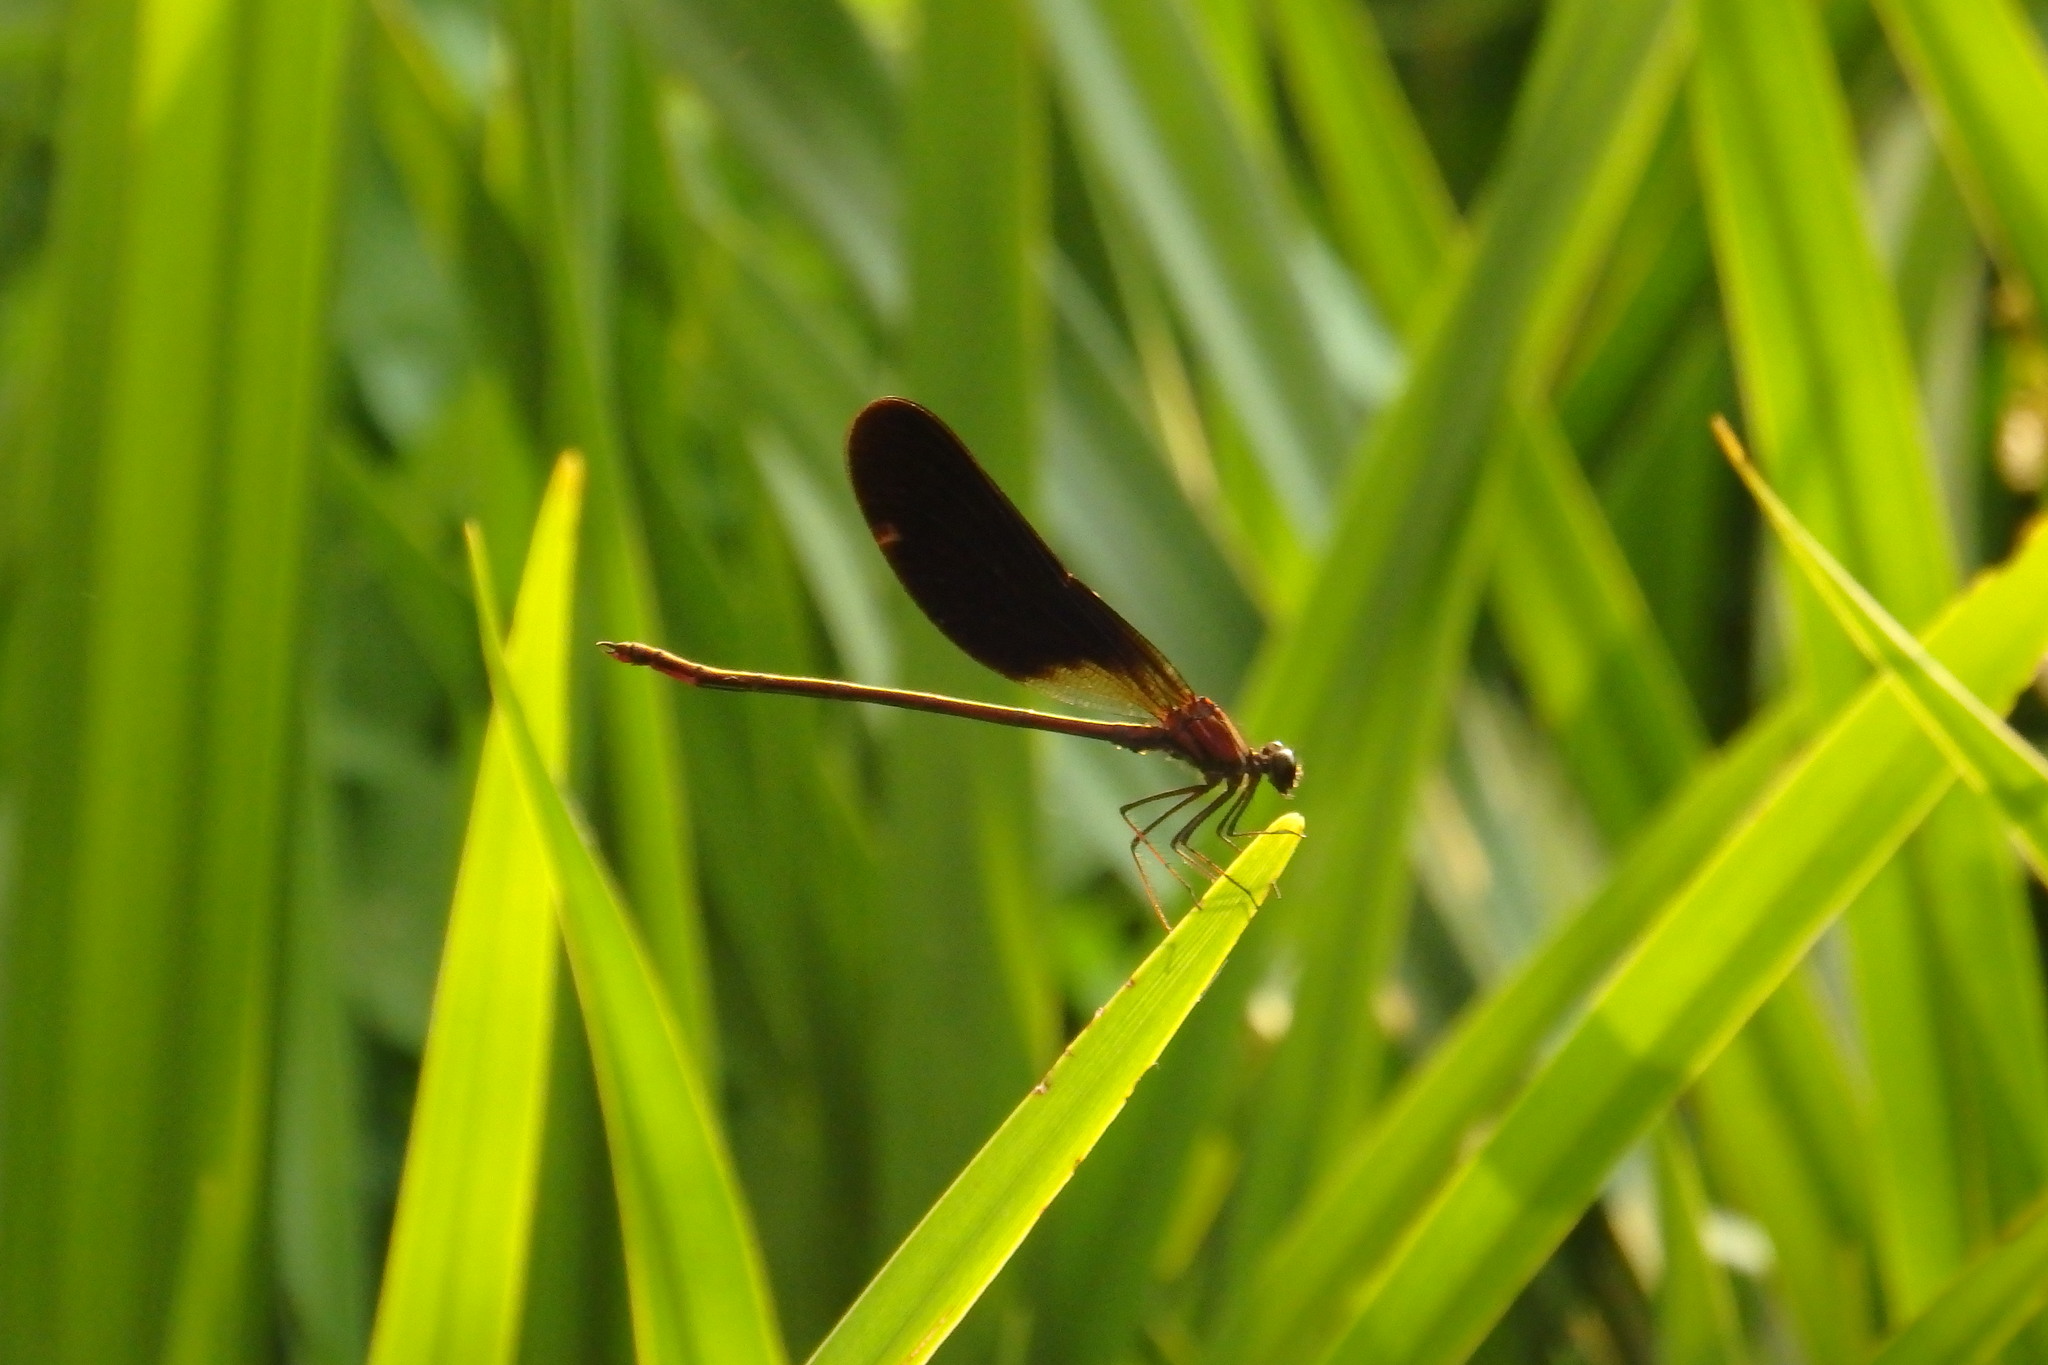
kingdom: Animalia
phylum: Arthropoda
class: Insecta
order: Odonata
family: Calopterygidae
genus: Calopteryx
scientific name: Calopteryx haemorrhoidalis
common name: Copper demoiselle
